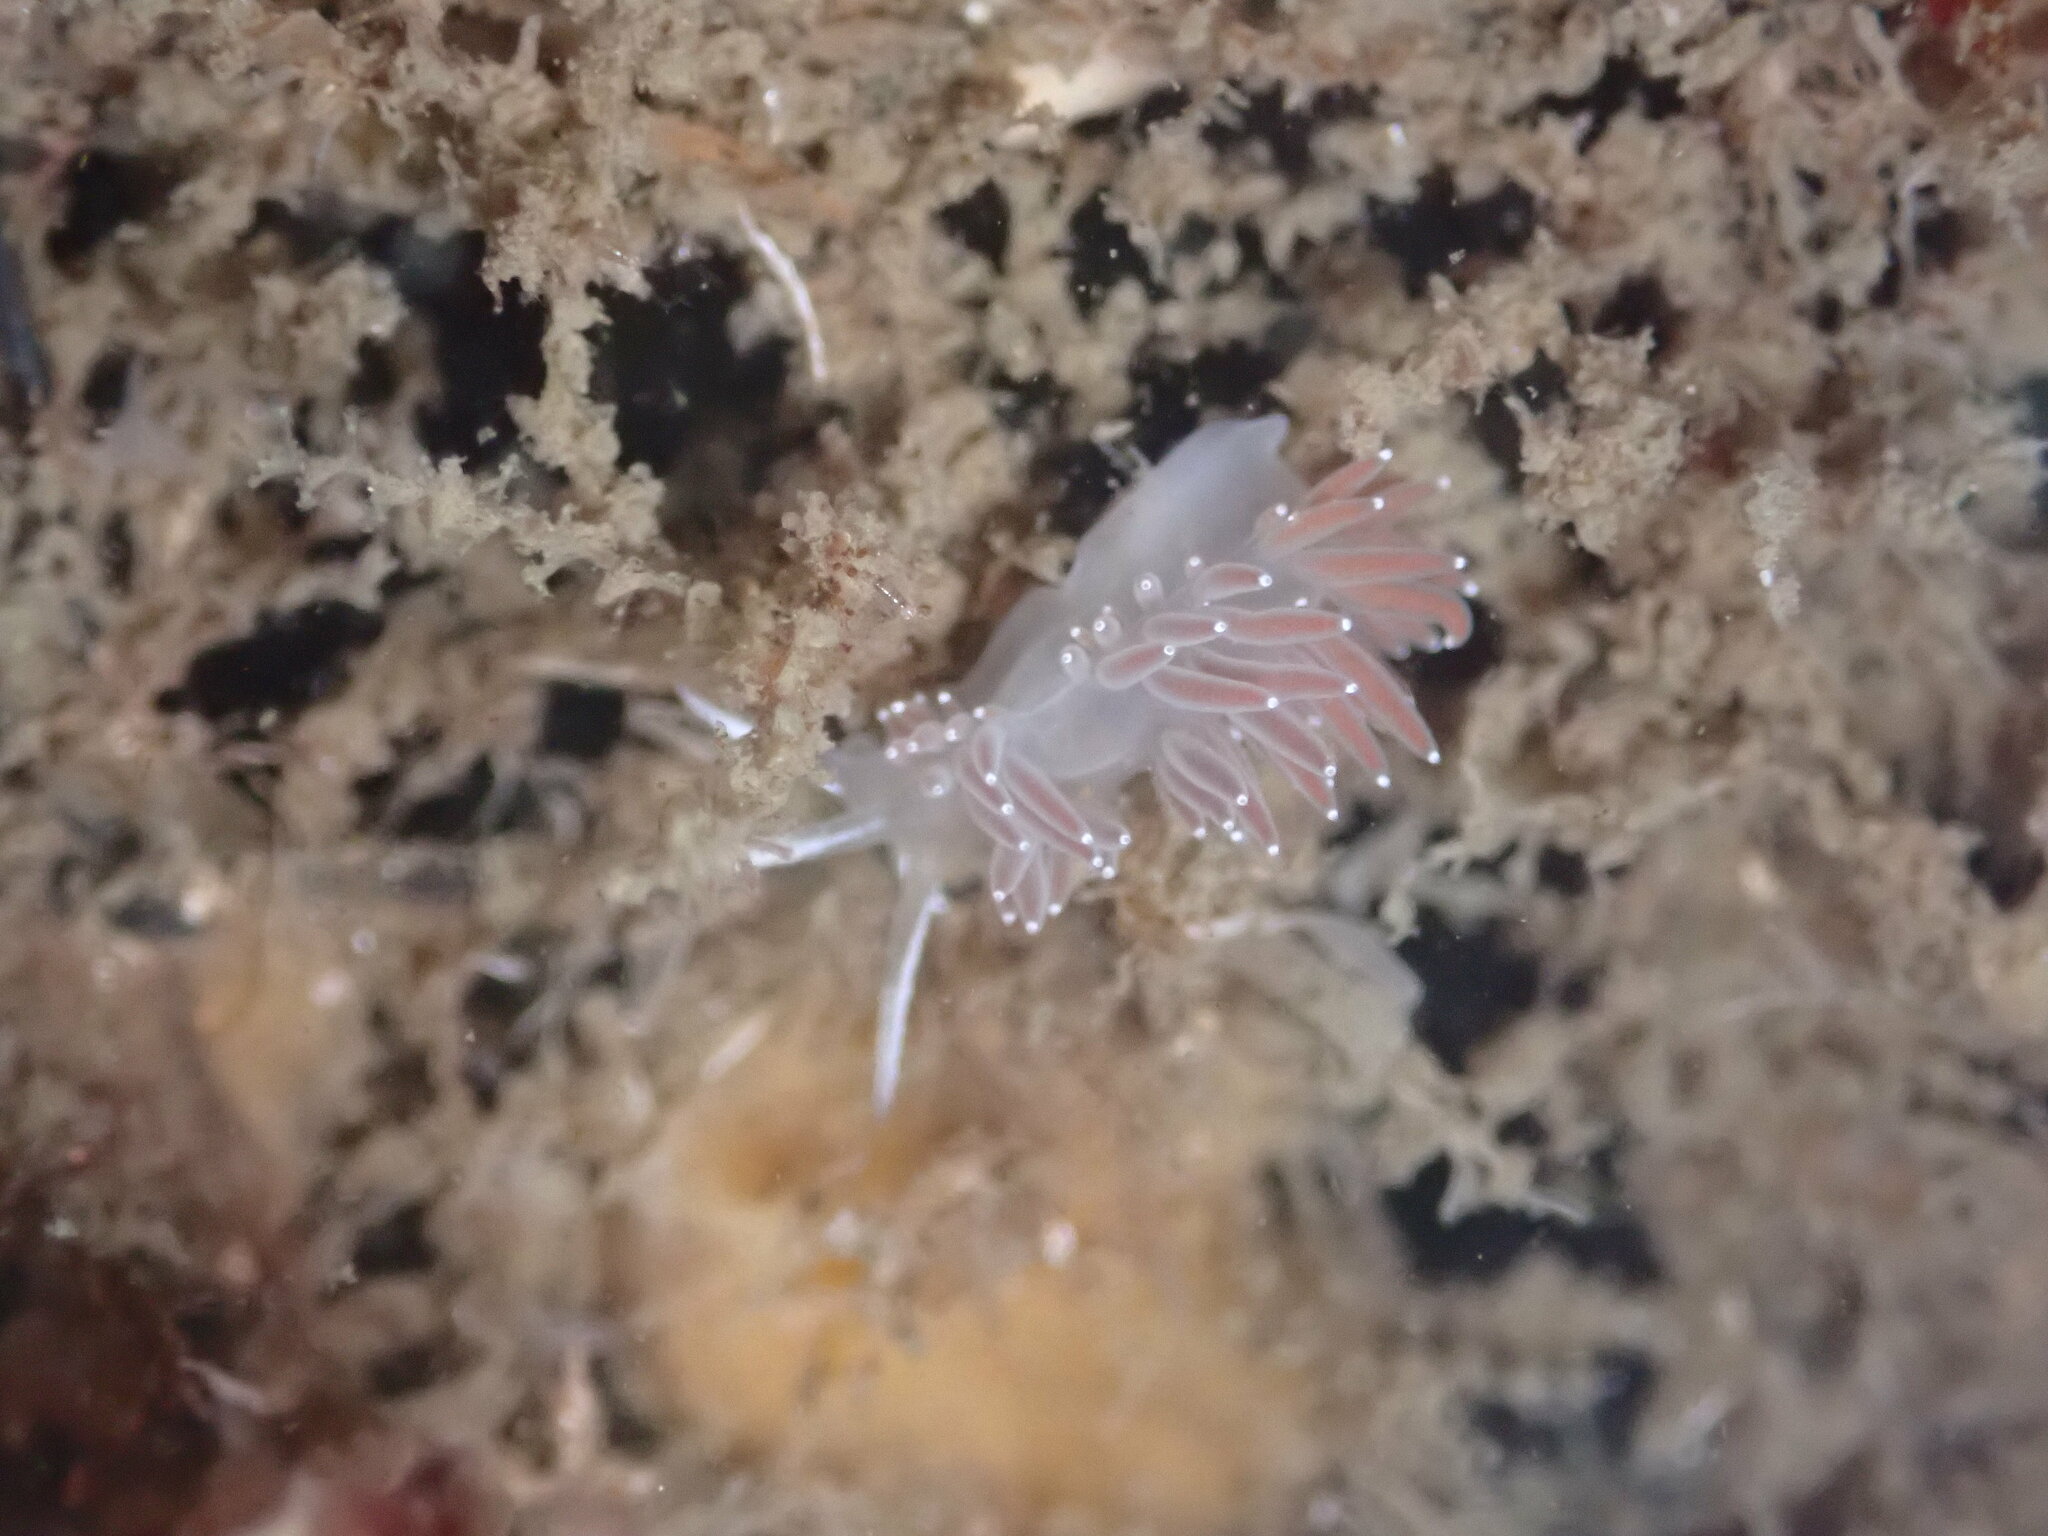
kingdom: Animalia
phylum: Mollusca
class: Gastropoda
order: Nudibranchia
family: Coryphellidae
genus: Coryphella
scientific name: Coryphella verrucosa
